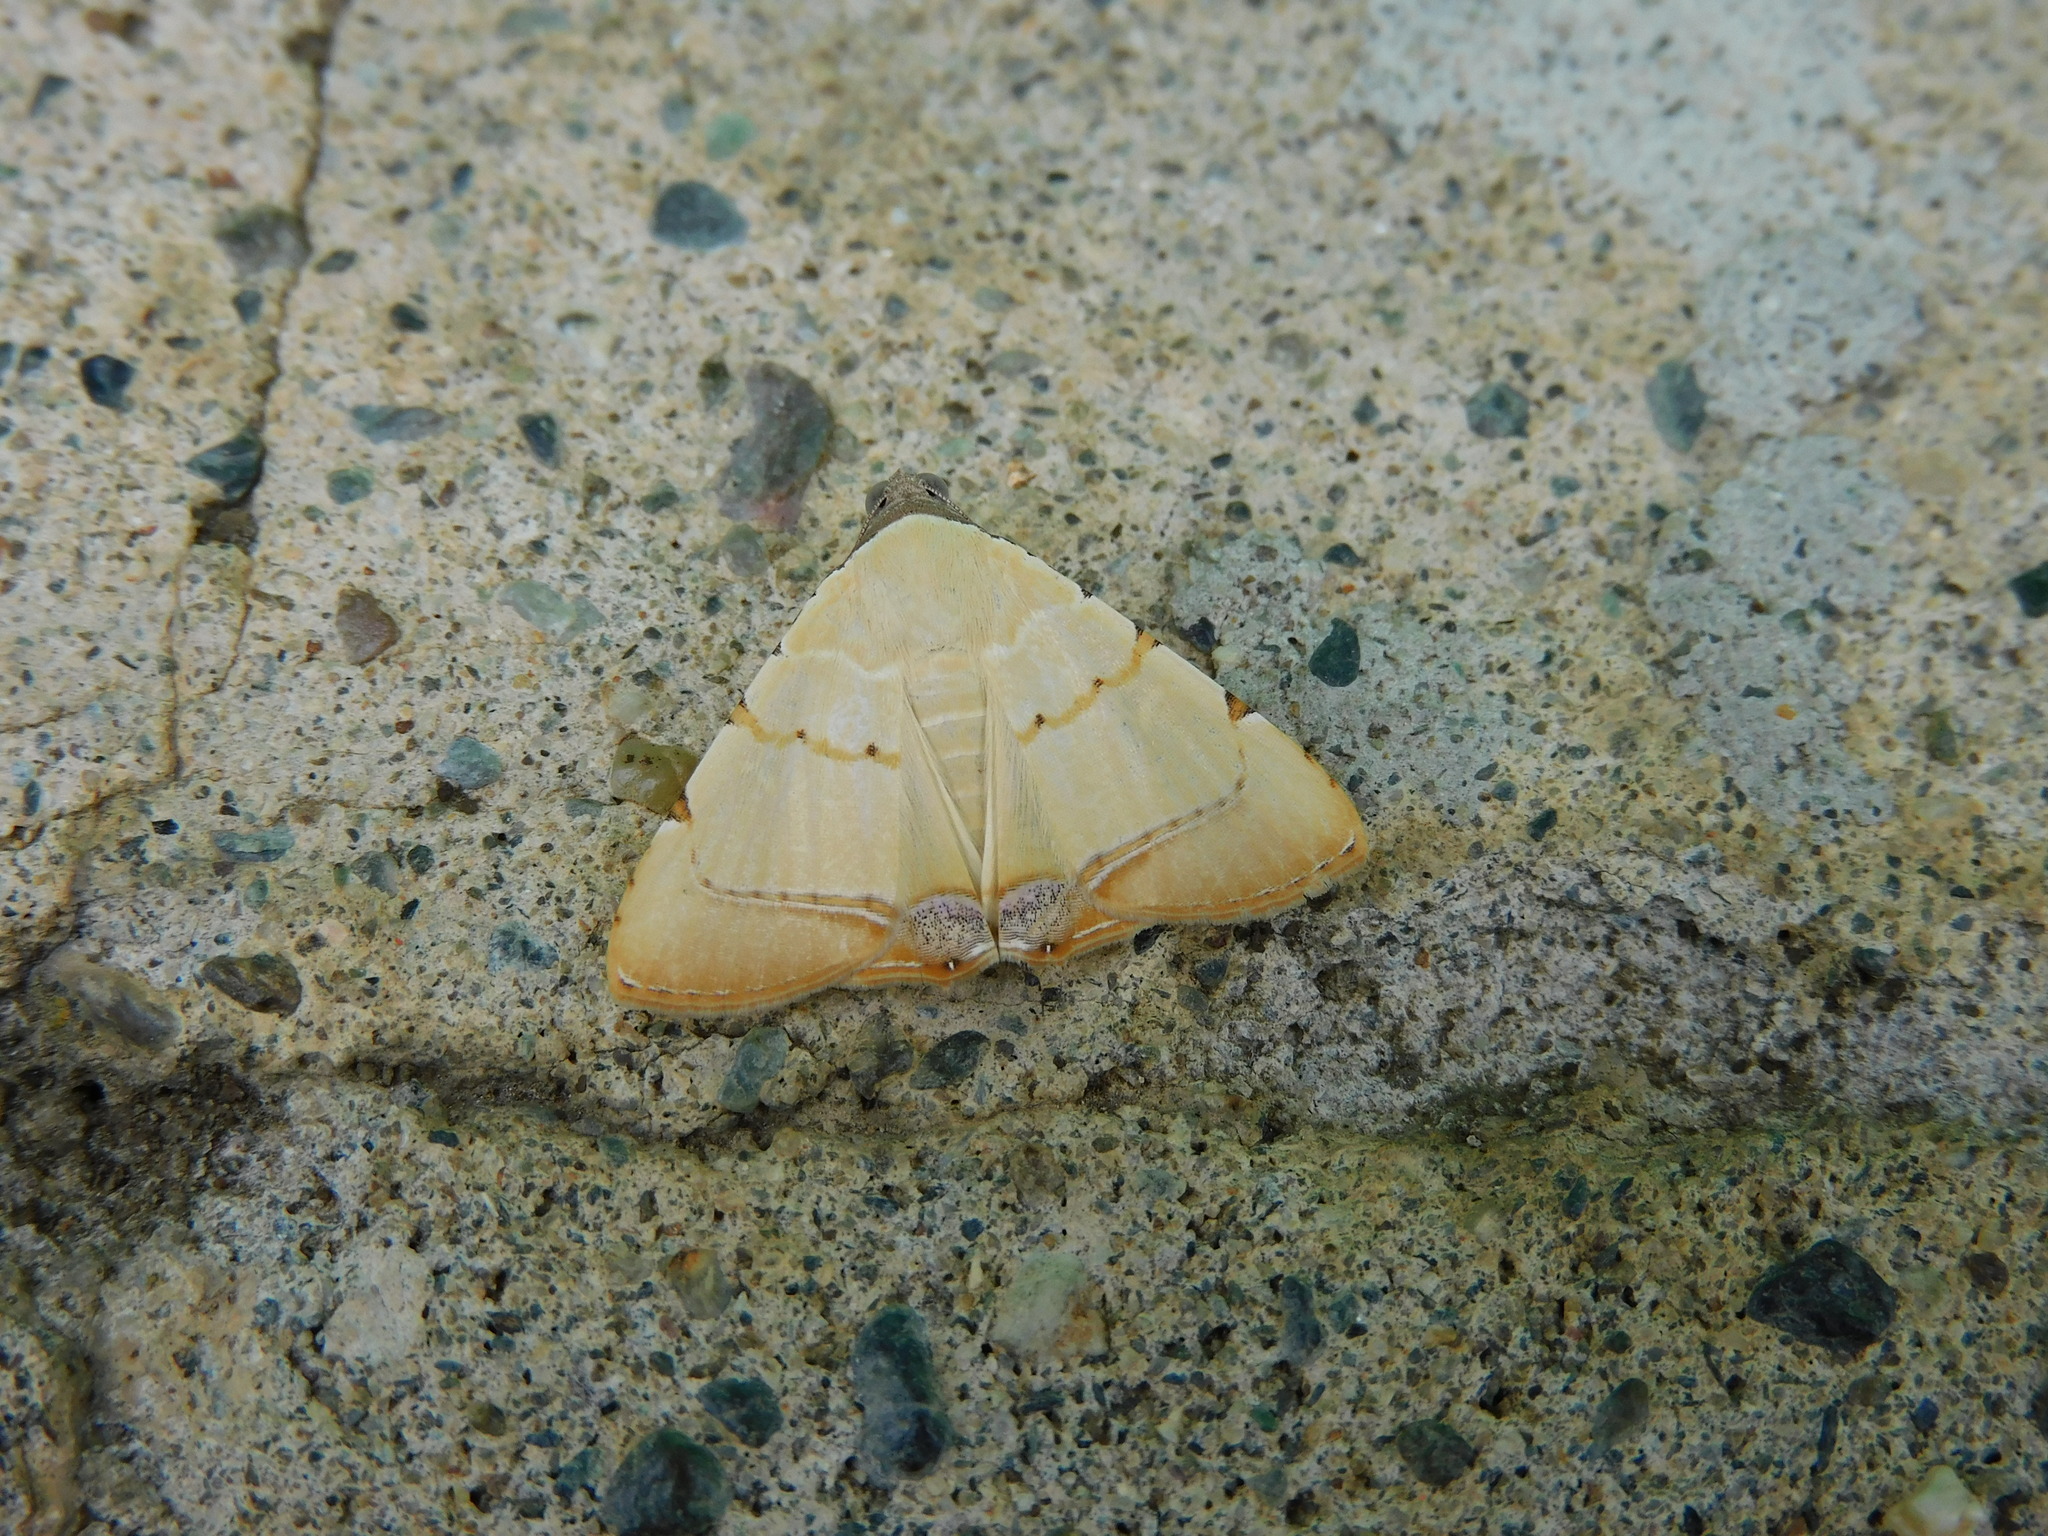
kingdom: Animalia
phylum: Arthropoda
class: Insecta
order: Lepidoptera
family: Erebidae
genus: Eulepidotis
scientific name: Eulepidotis micca
